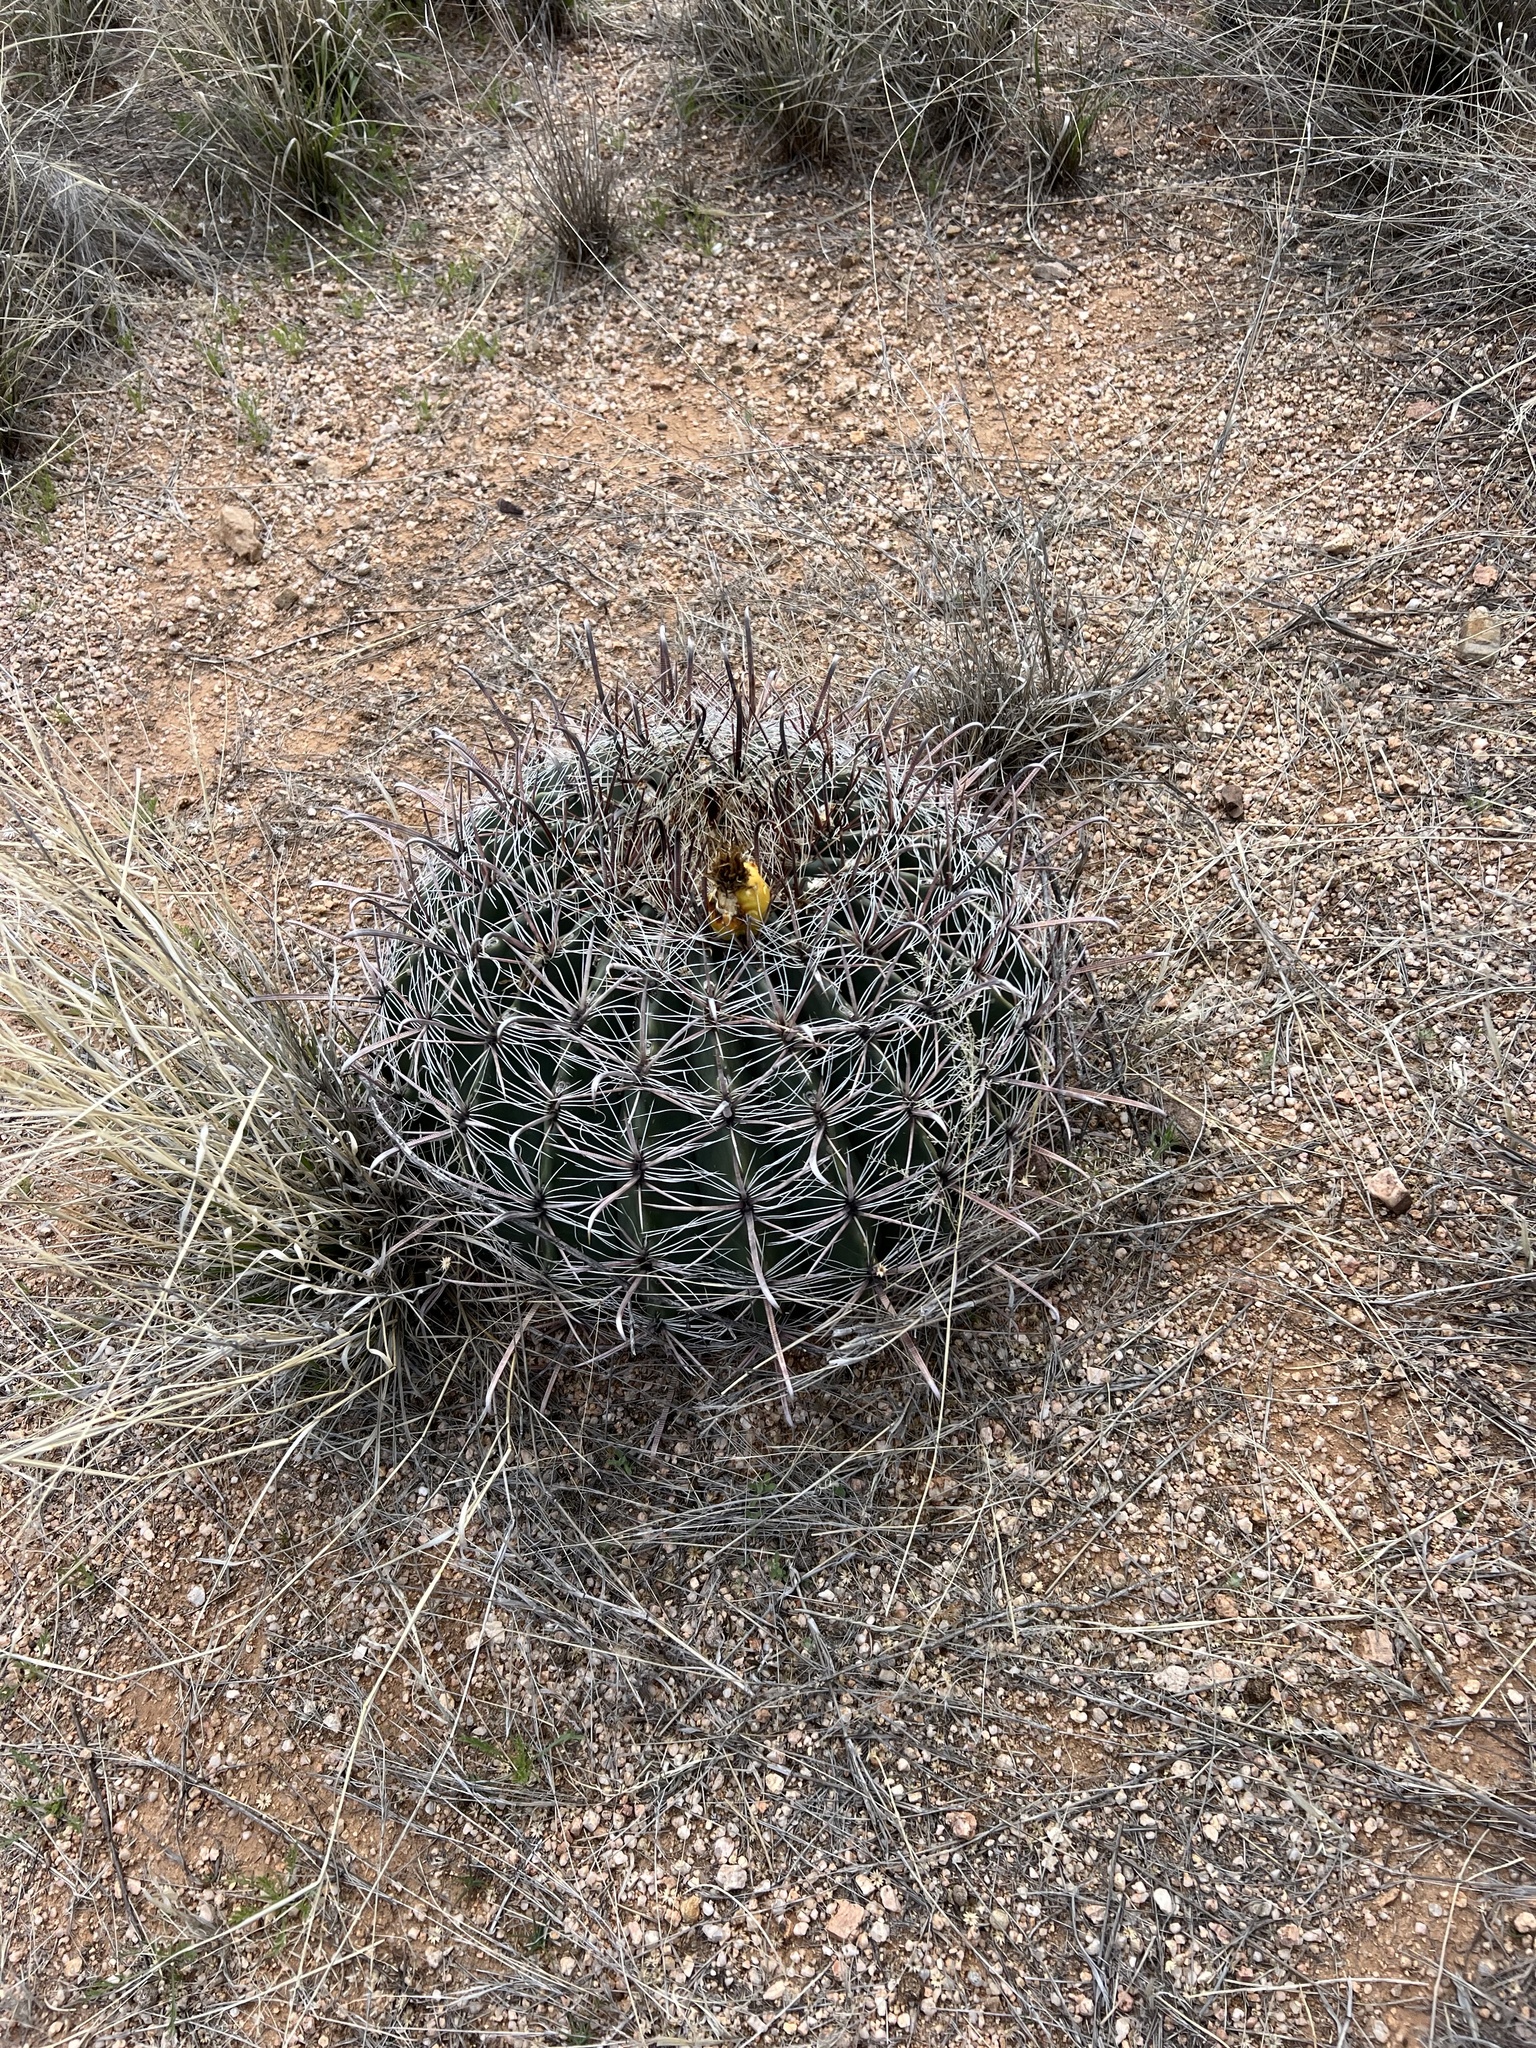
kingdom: Plantae
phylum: Tracheophyta
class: Magnoliopsida
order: Caryophyllales
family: Cactaceae
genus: Ferocactus
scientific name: Ferocactus wislizeni
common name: Candy barrel cactus
